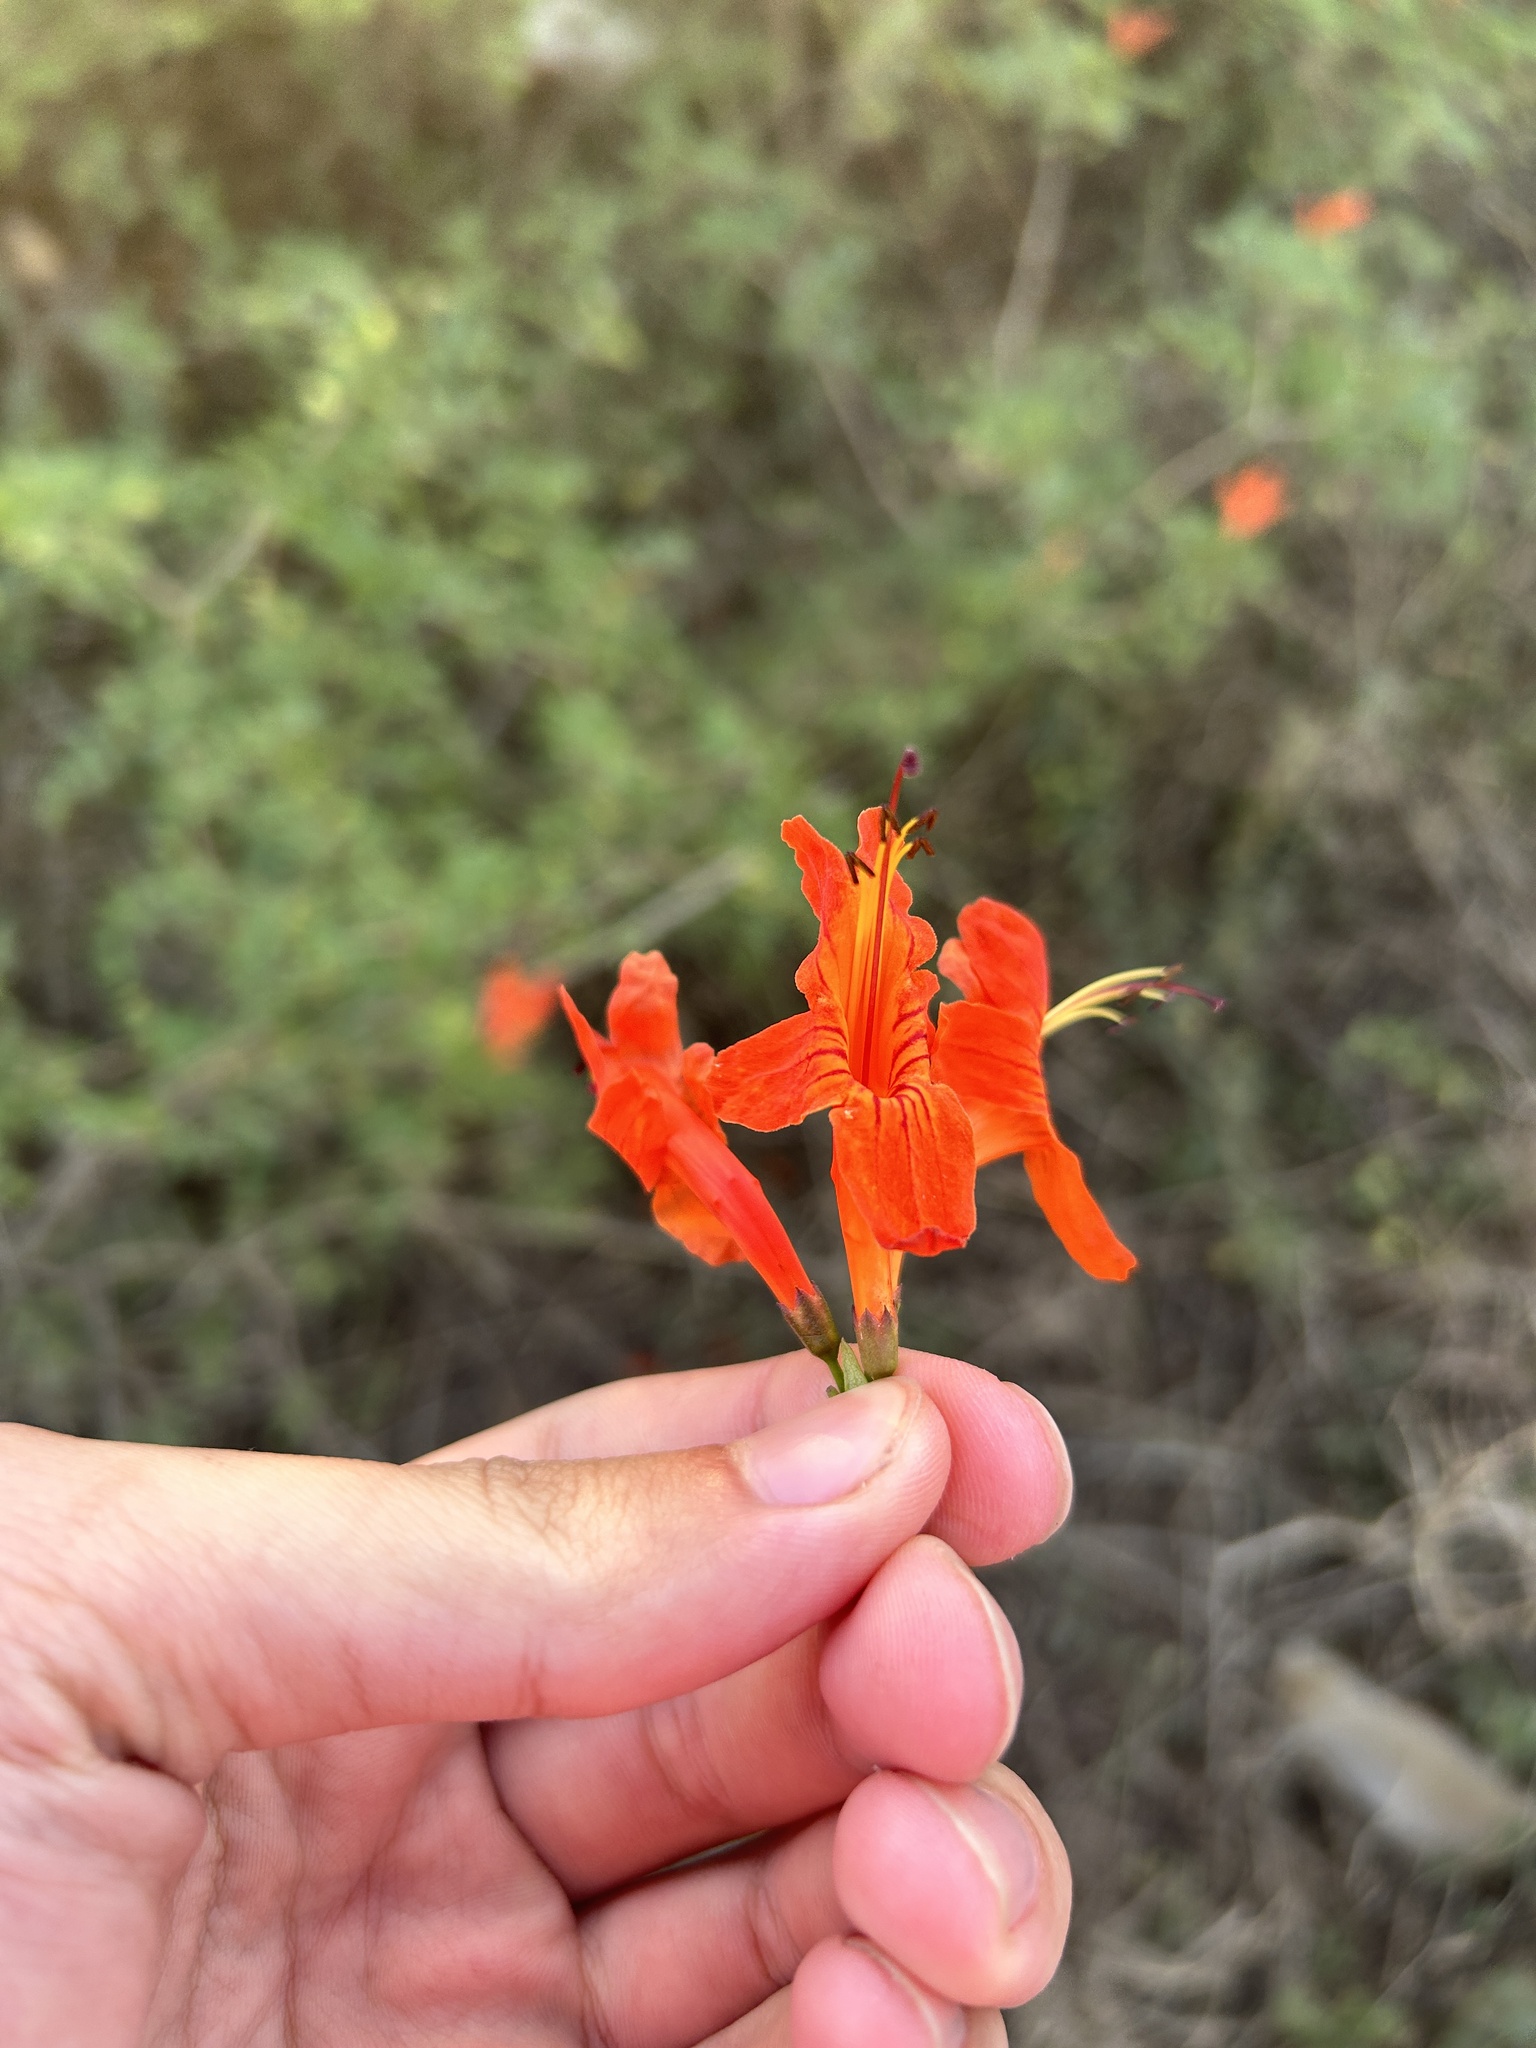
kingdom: Plantae
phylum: Tracheophyta
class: Magnoliopsida
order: Lamiales
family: Bignoniaceae
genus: Tecomaria
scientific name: Tecomaria capensis
